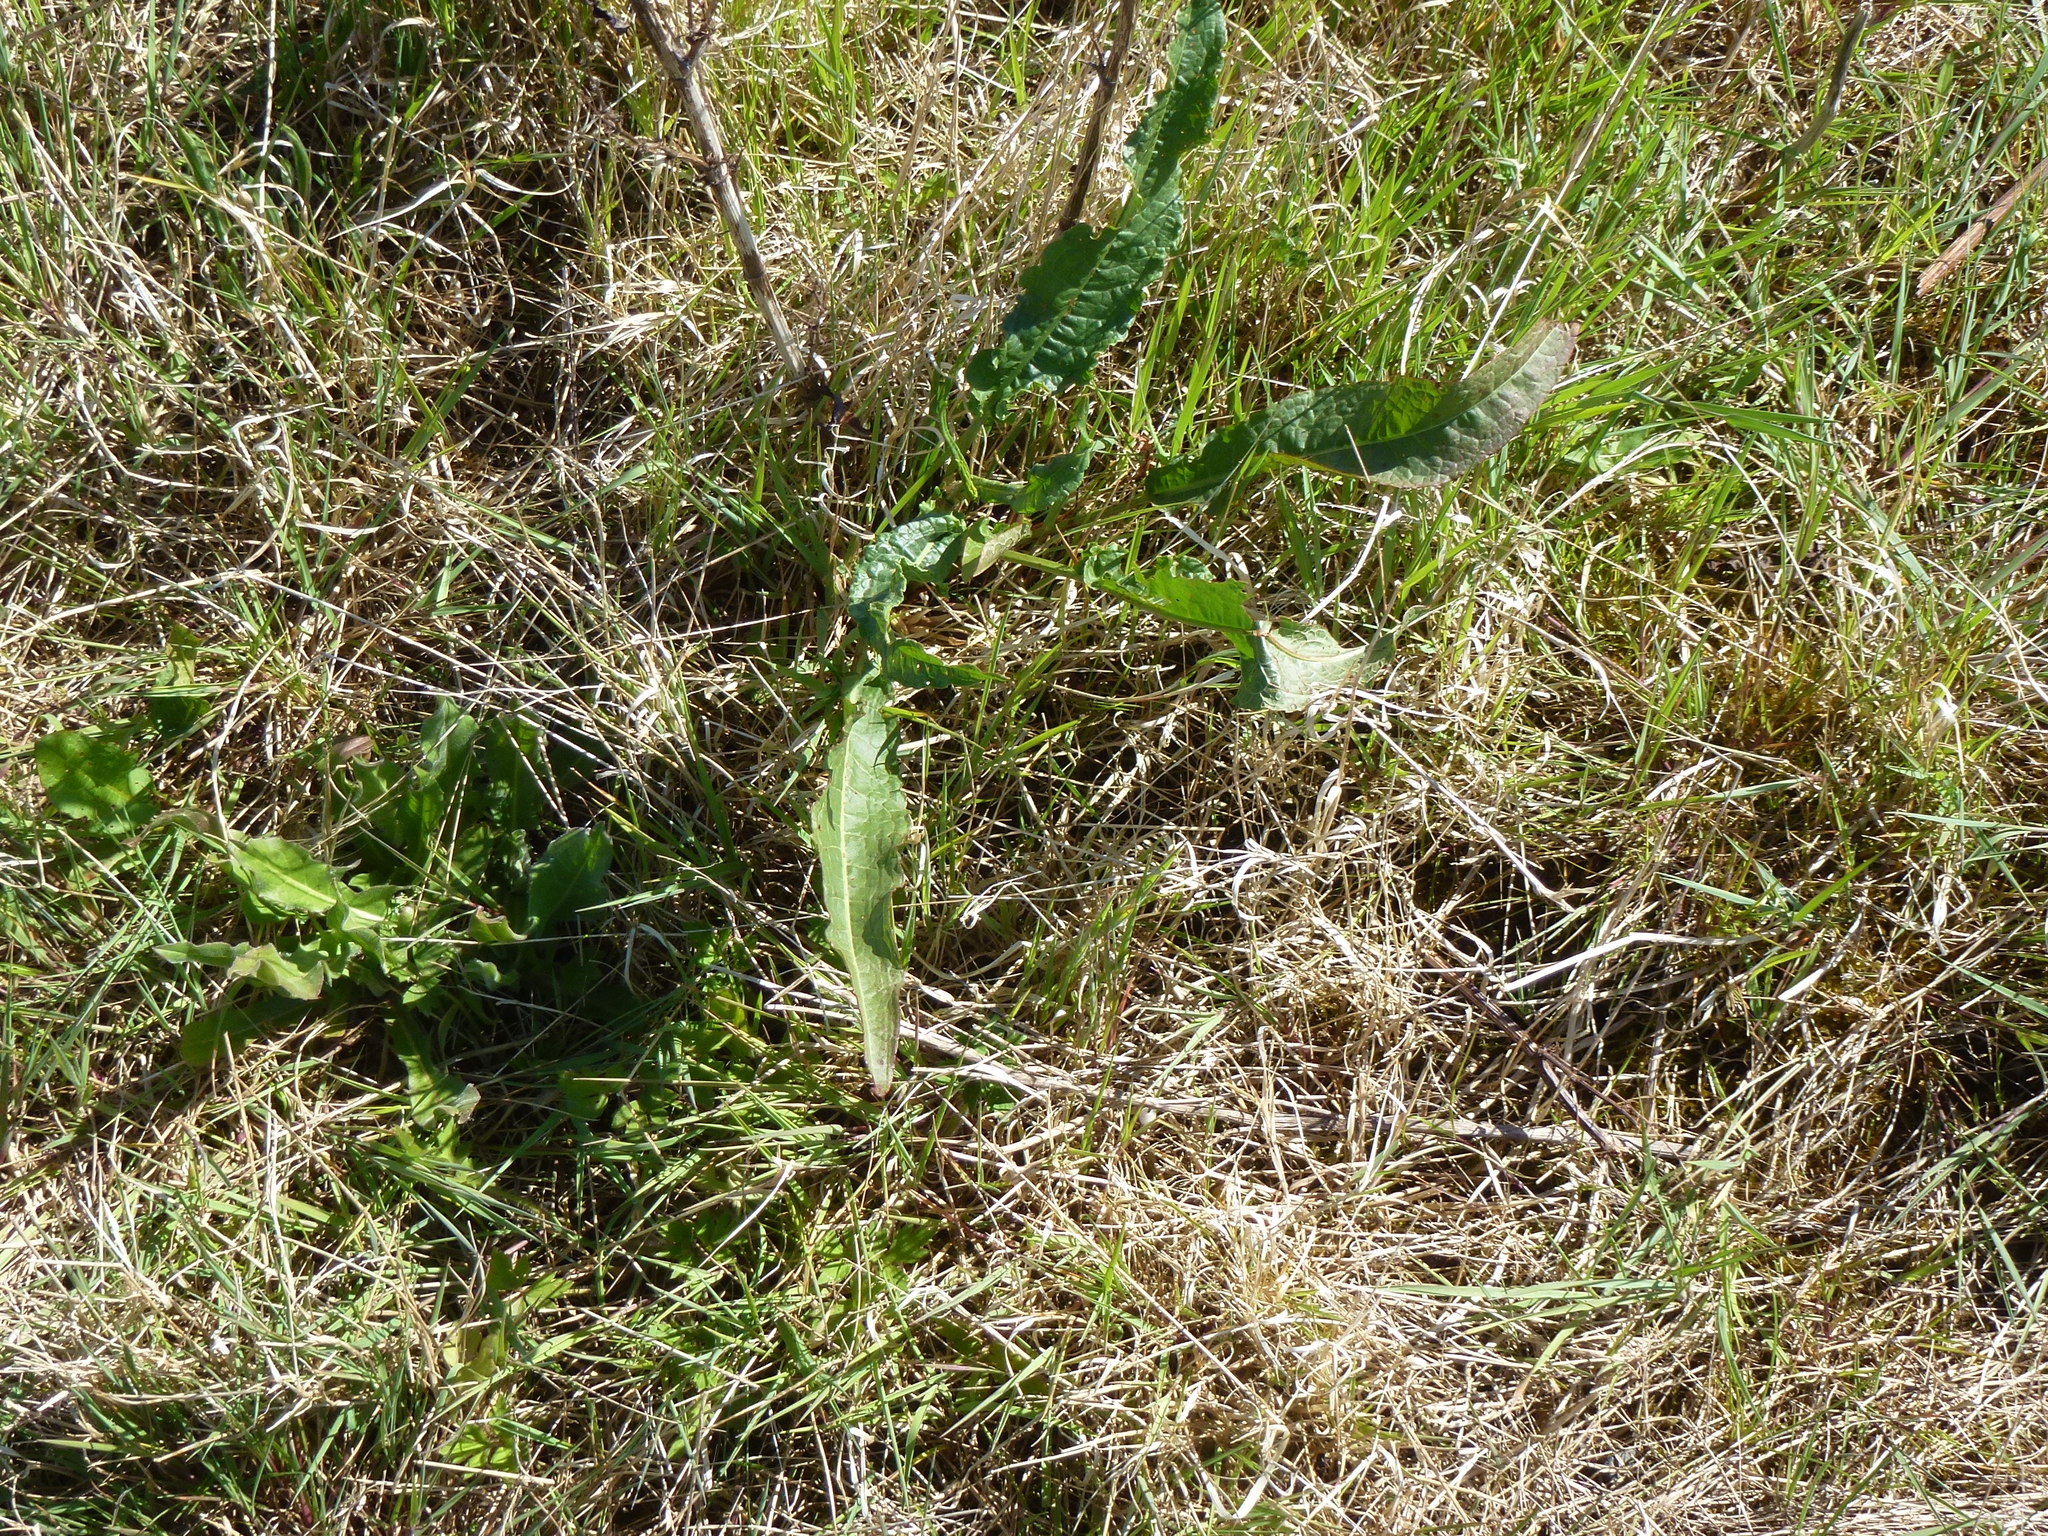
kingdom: Plantae
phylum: Tracheophyta
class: Magnoliopsida
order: Caryophyllales
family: Polygonaceae
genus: Rumex
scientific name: Rumex crispus
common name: Curled dock
